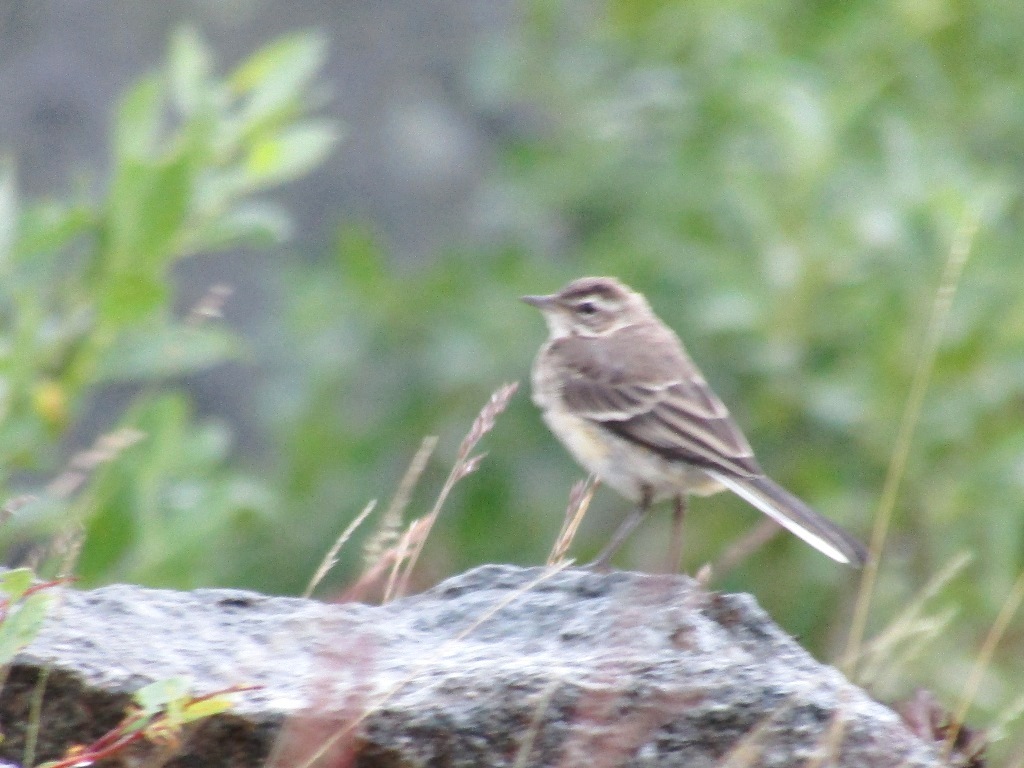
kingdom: Animalia
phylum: Chordata
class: Aves
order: Passeriformes
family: Motacillidae
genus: Motacilla
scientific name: Motacilla flava
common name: Western yellow wagtail
